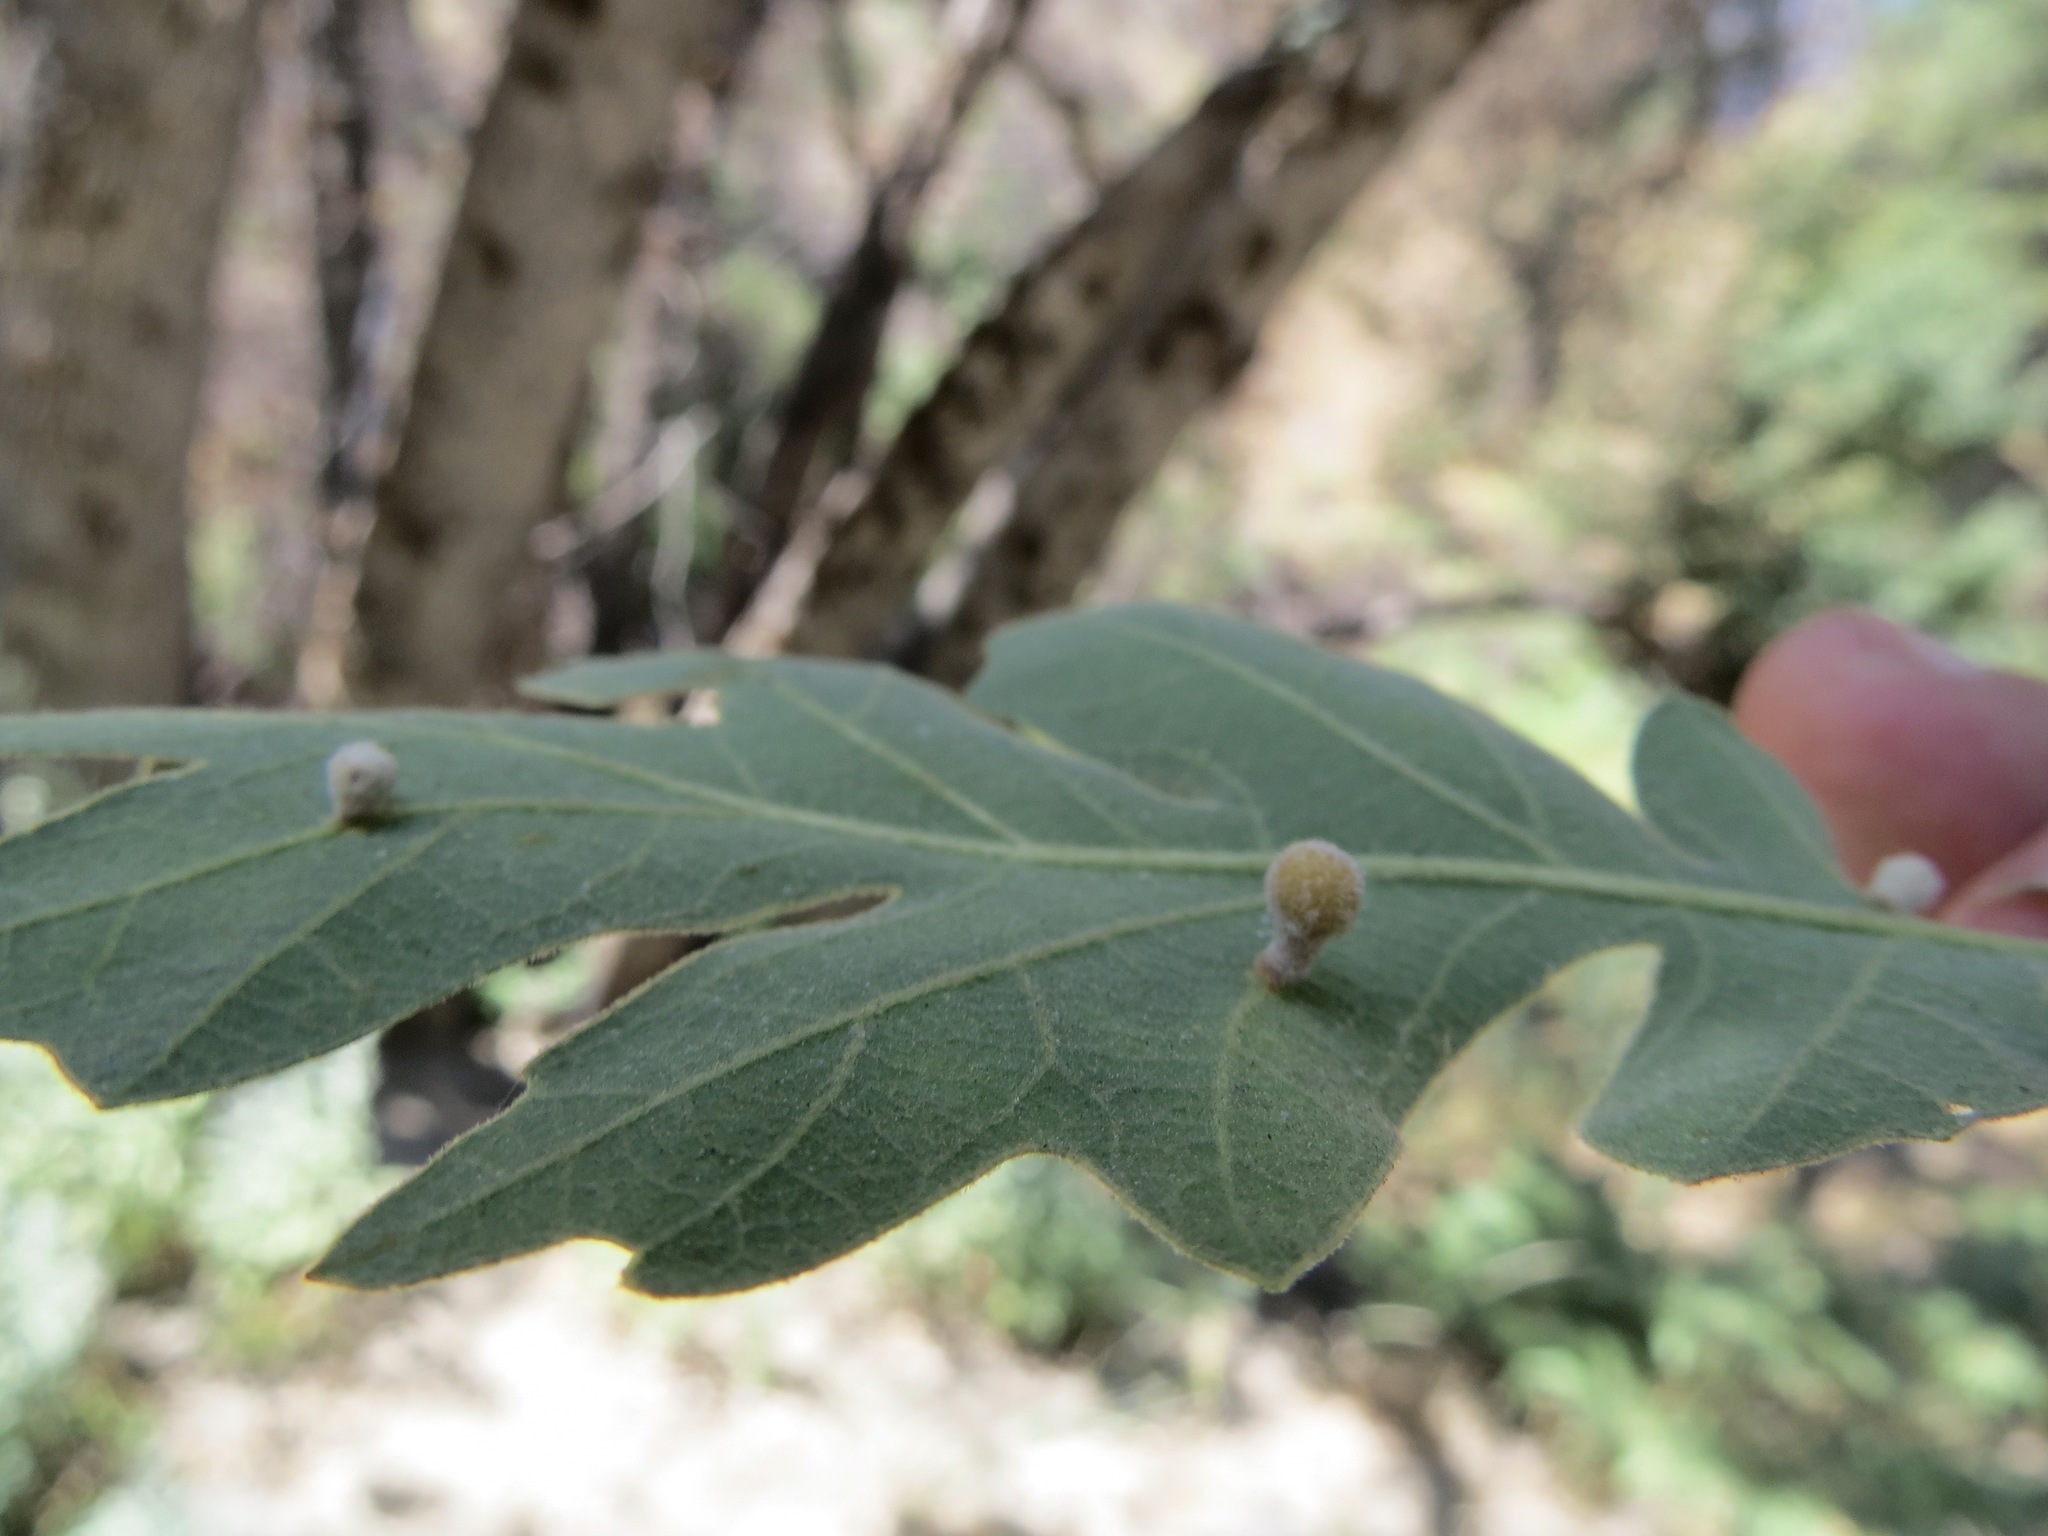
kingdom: Animalia
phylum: Arthropoda
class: Insecta
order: Hymenoptera
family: Cynipidae
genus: Trigonaspis
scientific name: Trigonaspis
